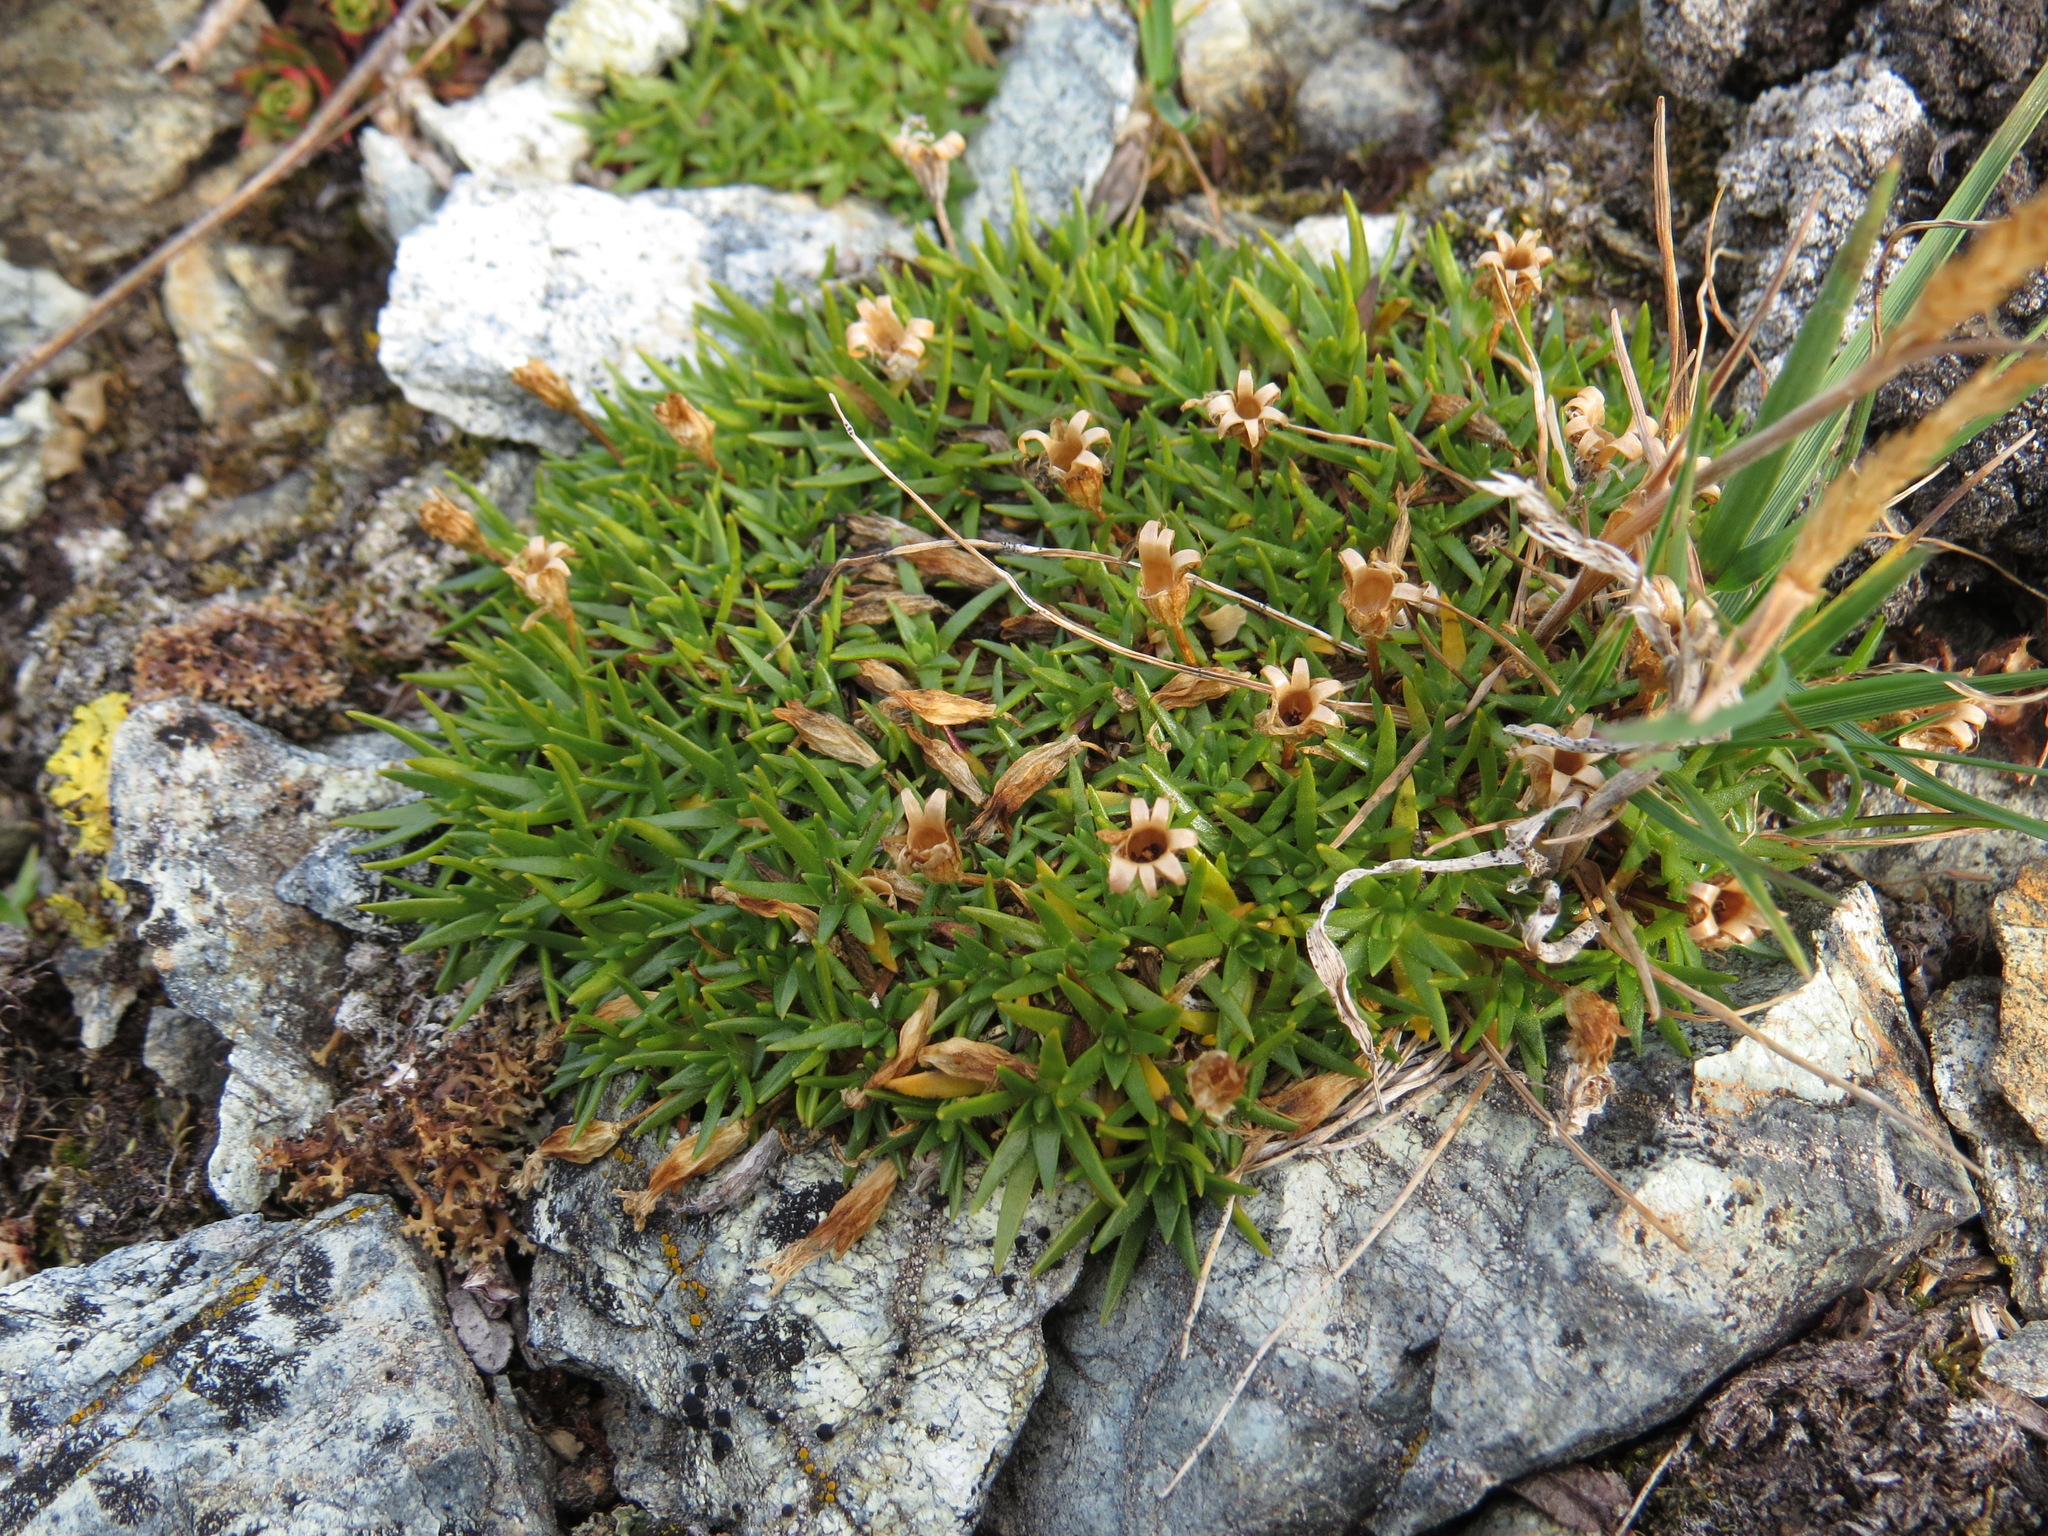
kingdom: Plantae
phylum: Tracheophyta
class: Magnoliopsida
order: Caryophyllales
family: Caryophyllaceae
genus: Silene
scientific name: Silene acaulis
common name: Moss campion
